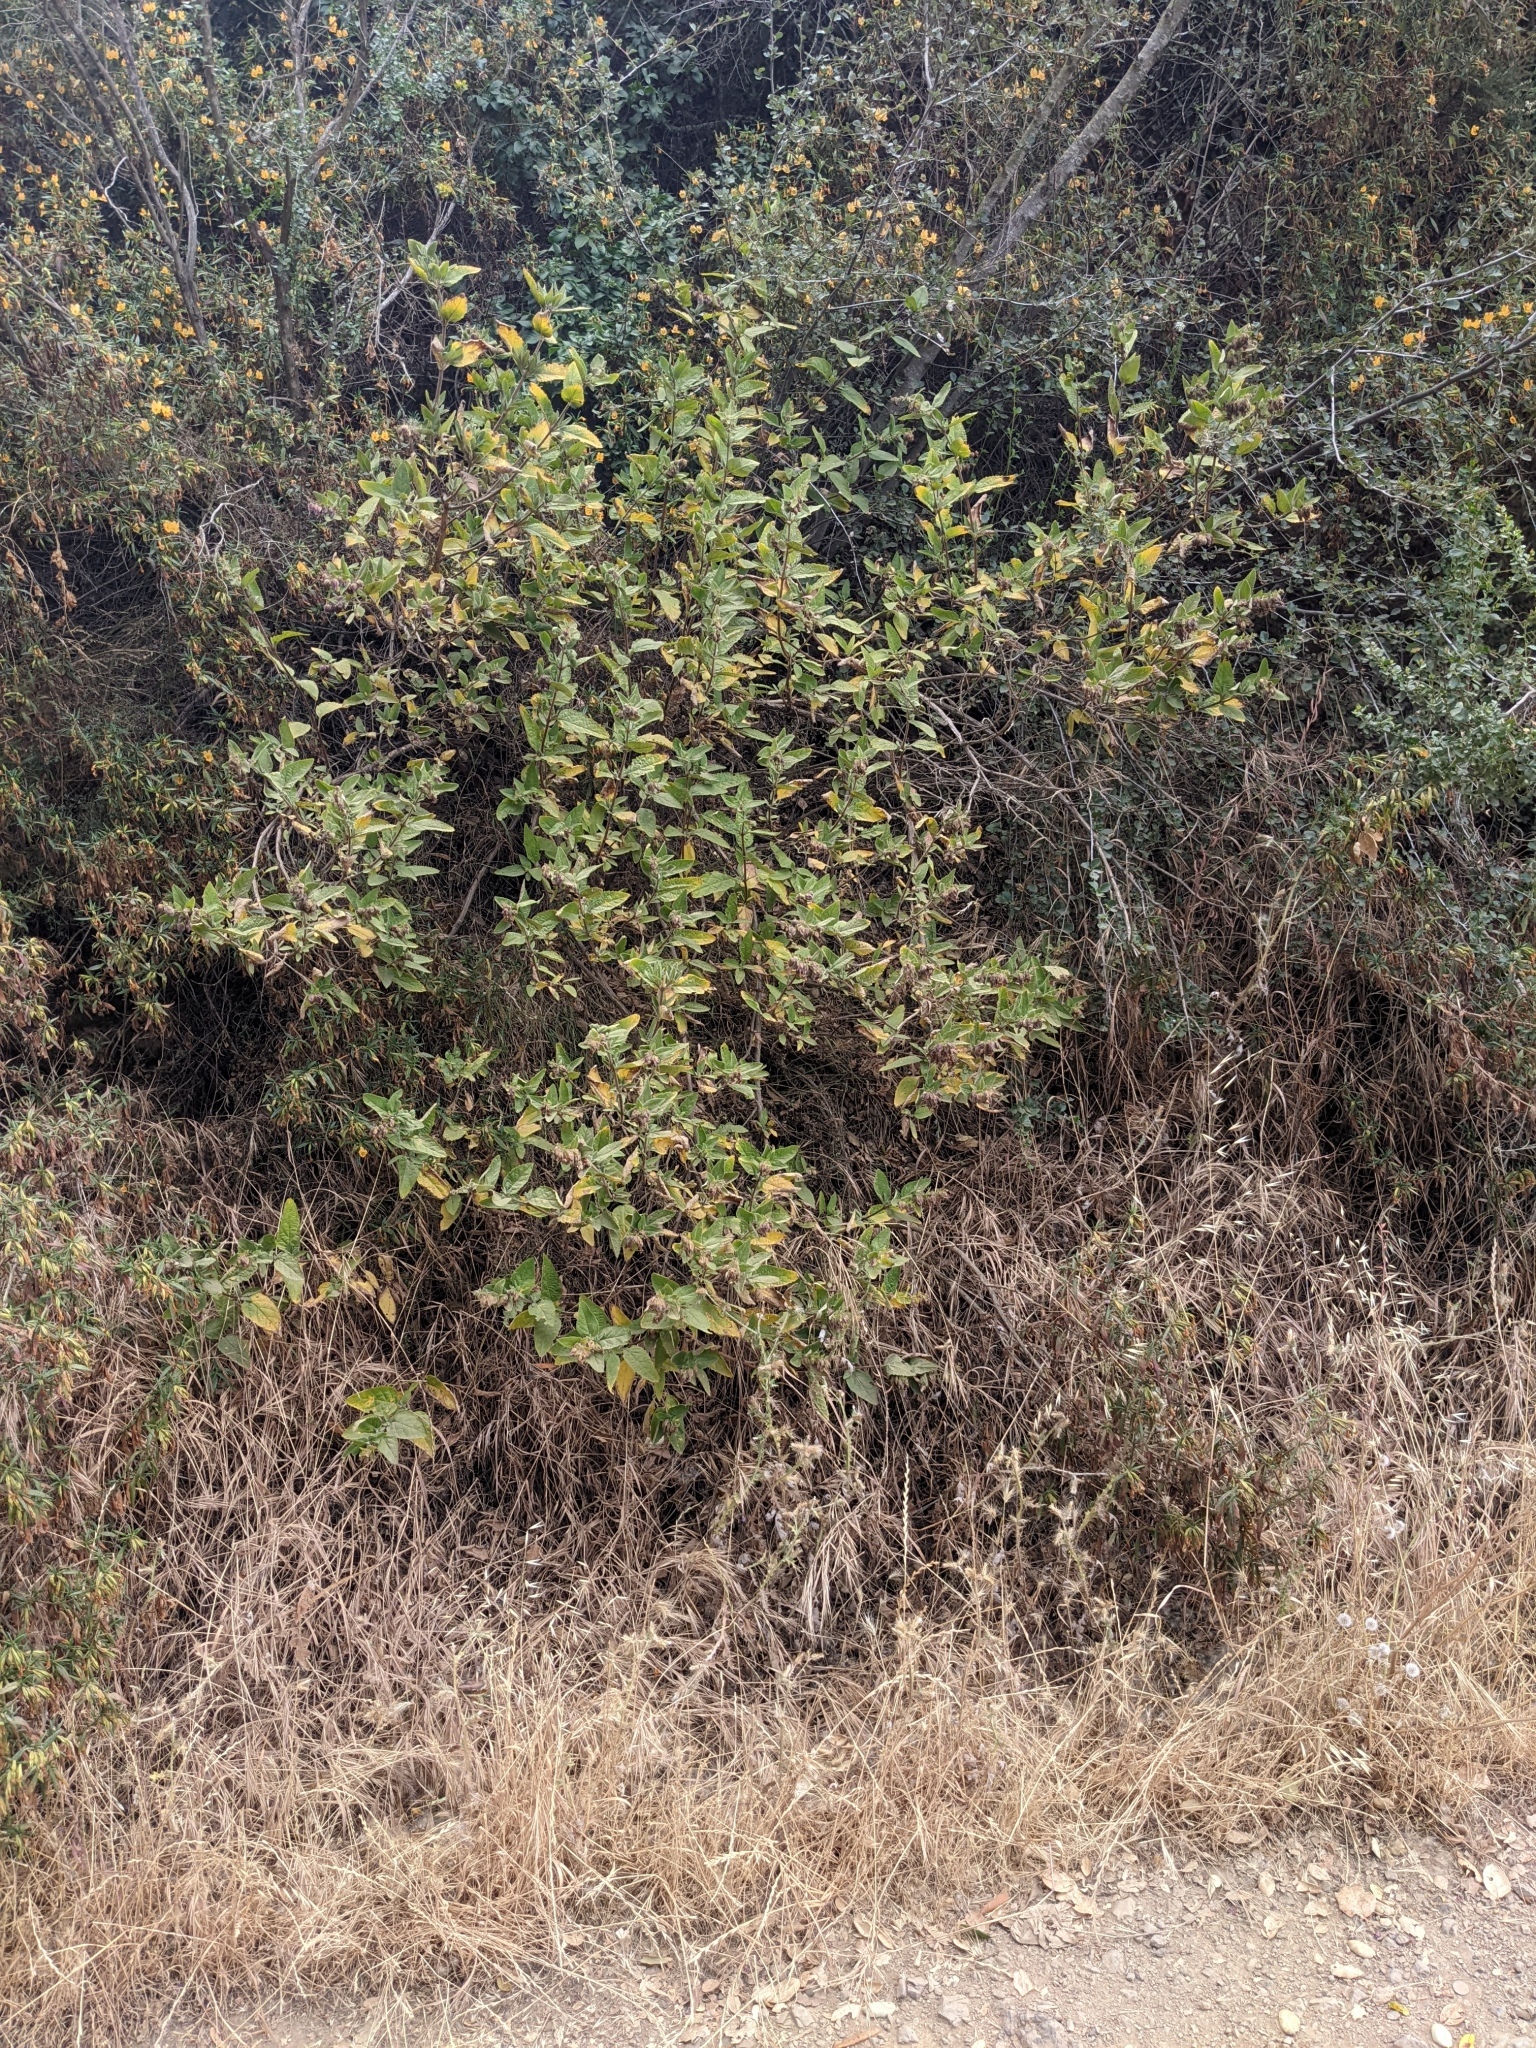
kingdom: Plantae
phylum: Tracheophyta
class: Magnoliopsida
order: Lamiales
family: Lamiaceae
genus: Lepechinia
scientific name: Lepechinia calycina
